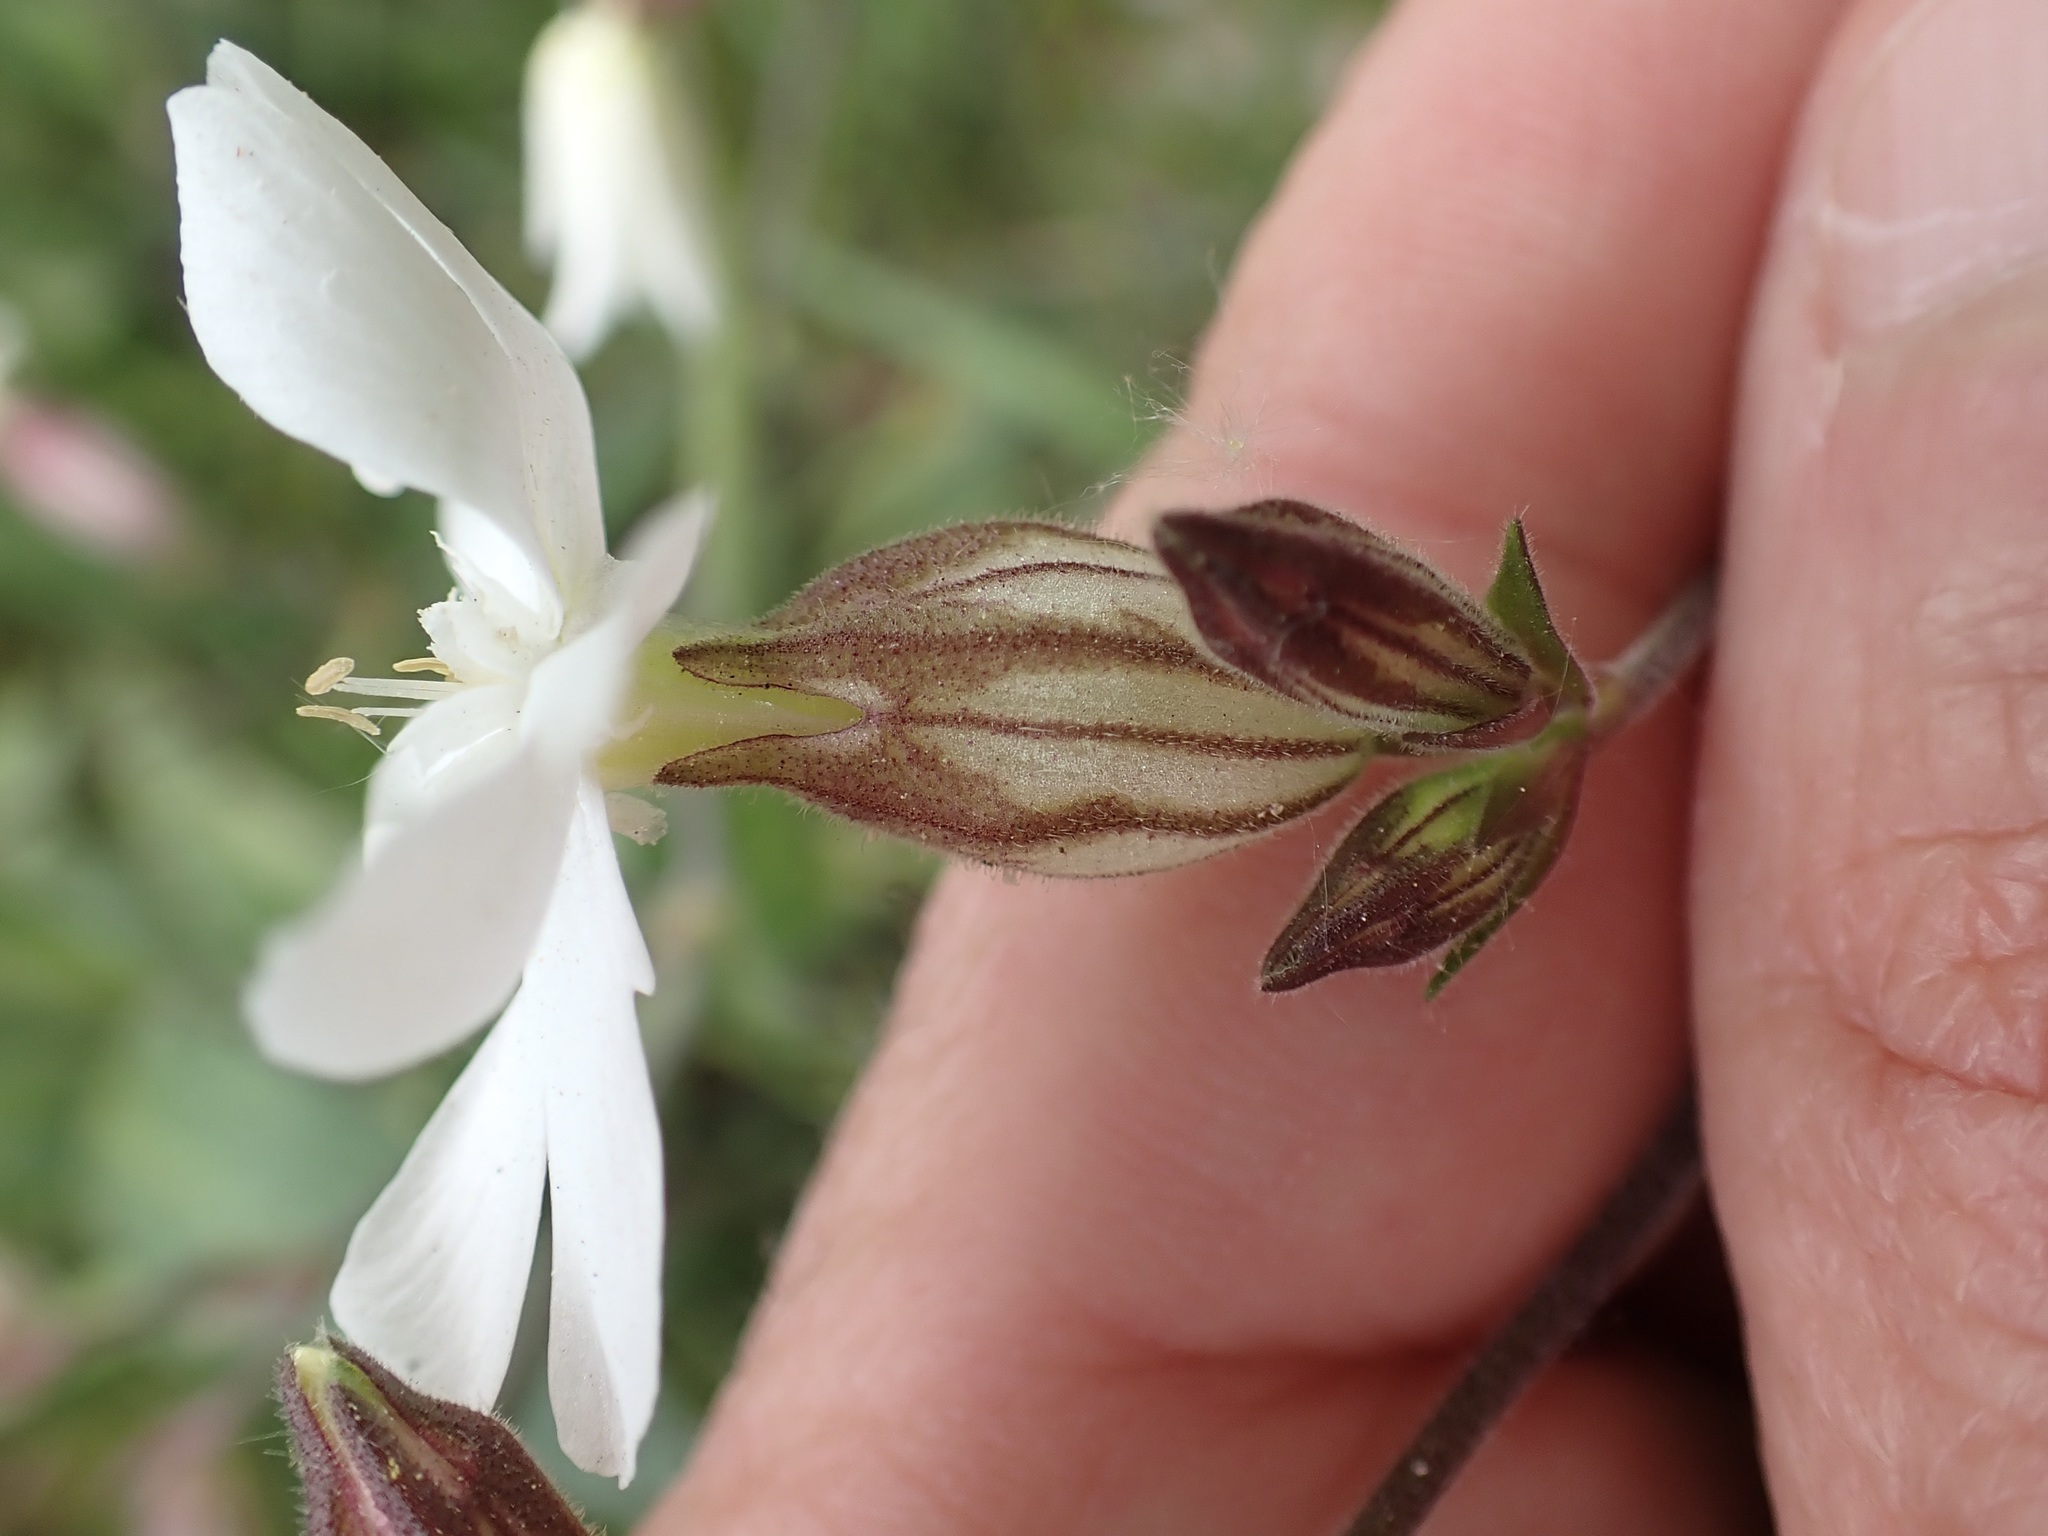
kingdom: Plantae
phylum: Tracheophyta
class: Magnoliopsida
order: Caryophyllales
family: Caryophyllaceae
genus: Silene
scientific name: Silene latifolia
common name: White campion
